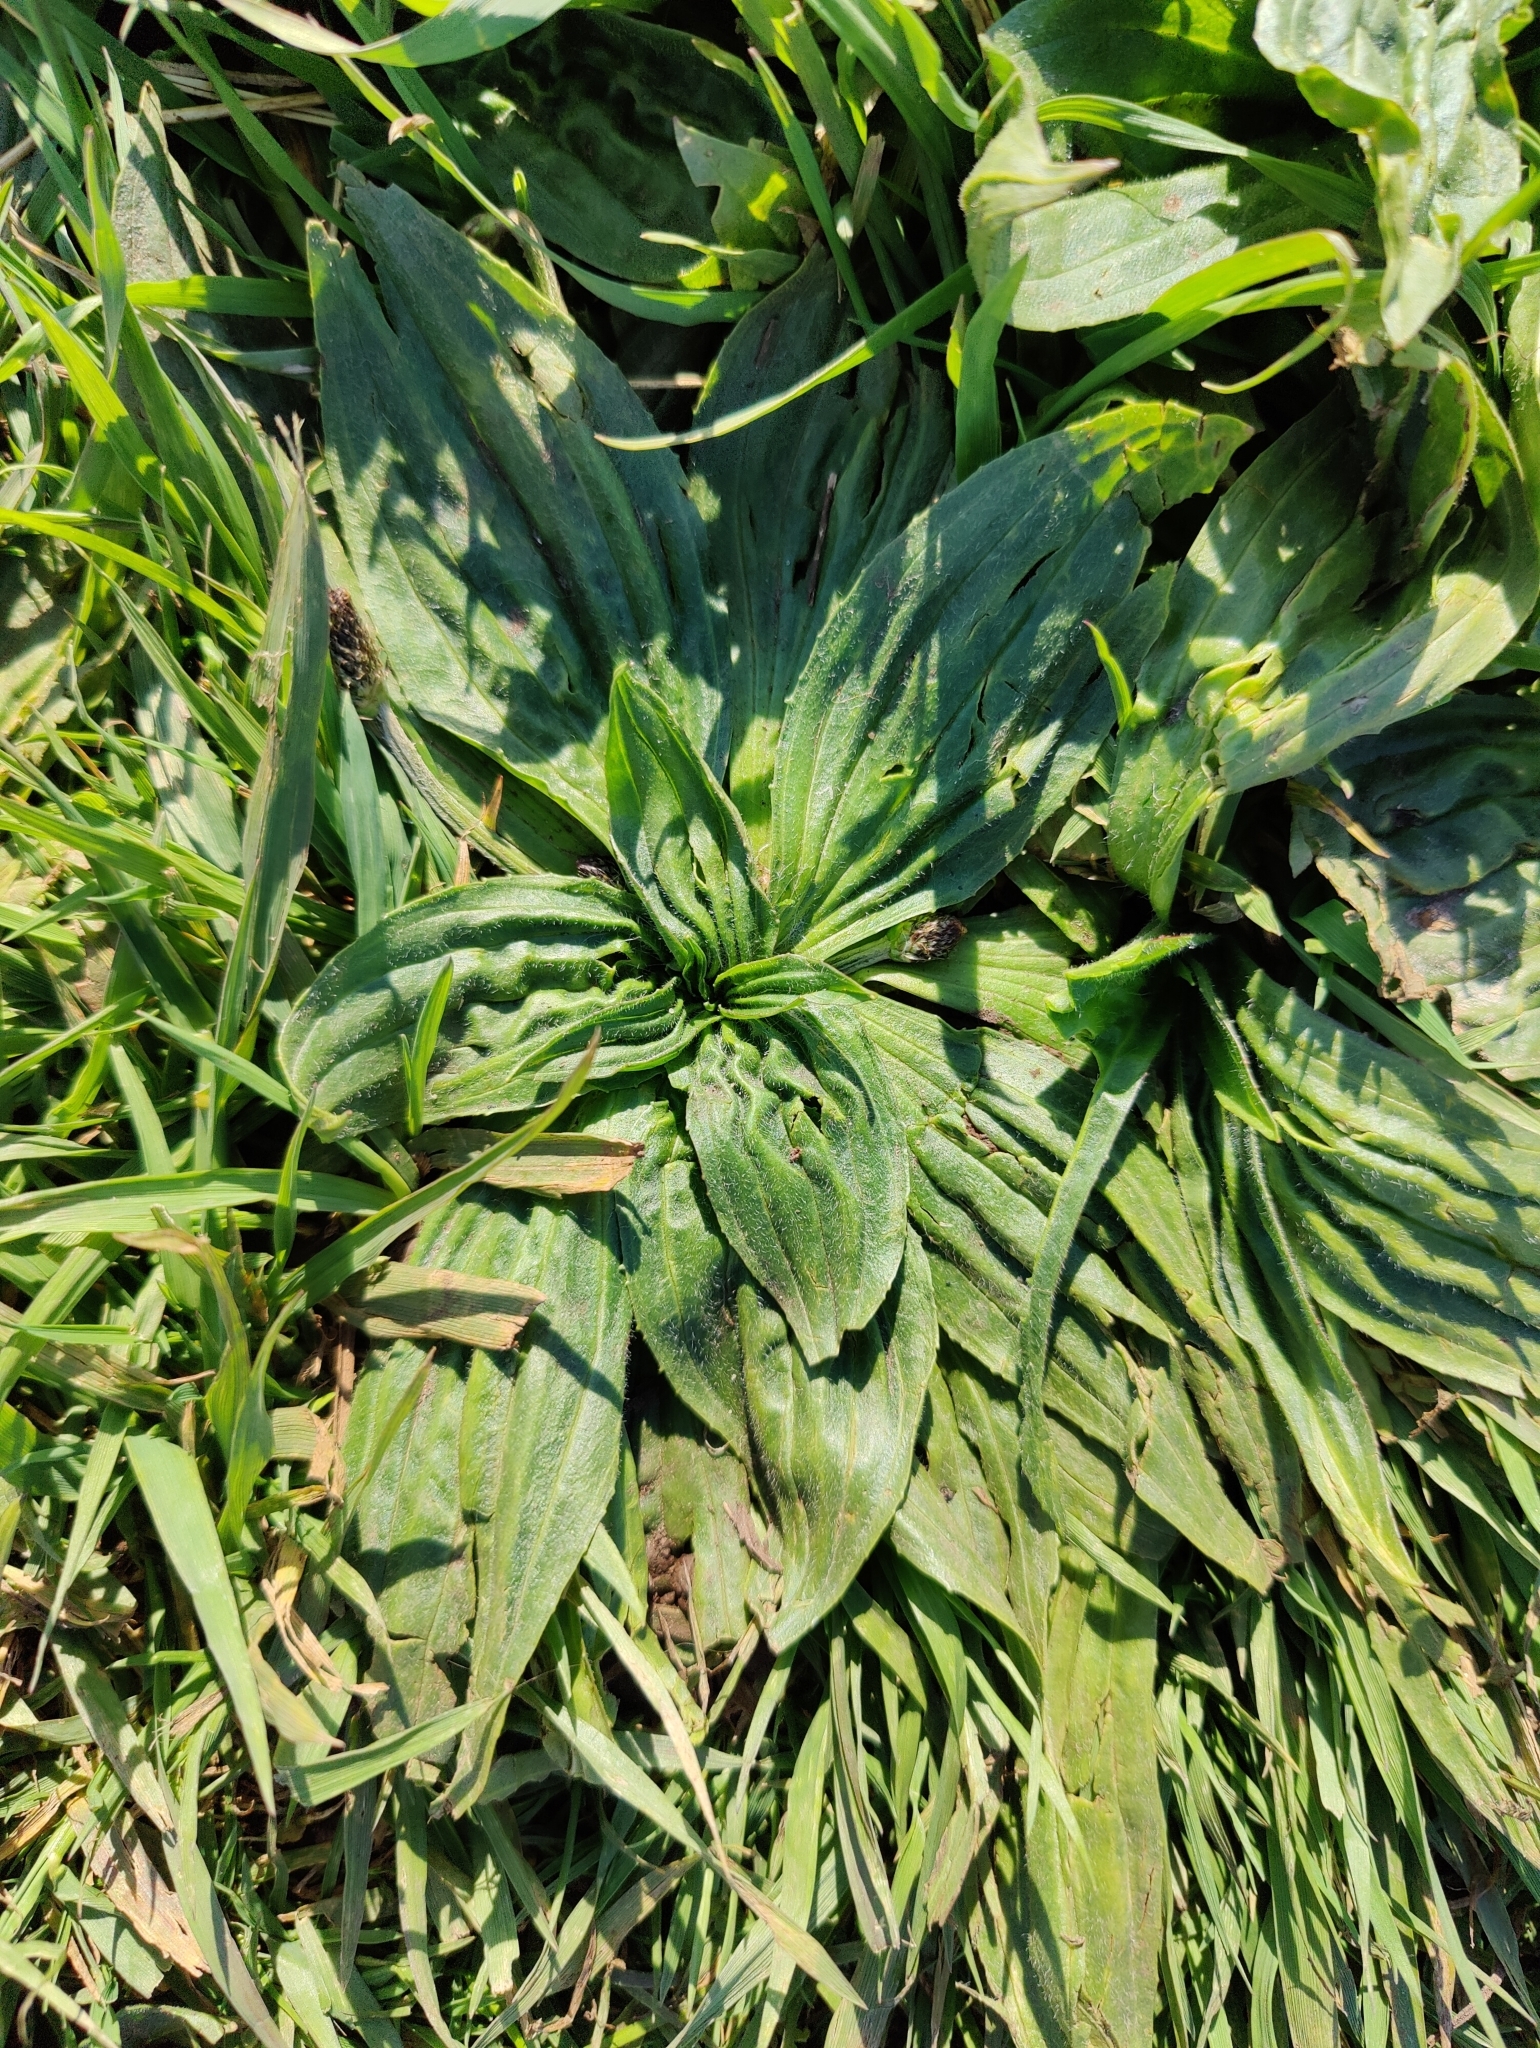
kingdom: Plantae
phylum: Tracheophyta
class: Magnoliopsida
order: Lamiales
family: Plantaginaceae
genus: Plantago
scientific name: Plantago major
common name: Common plantain
